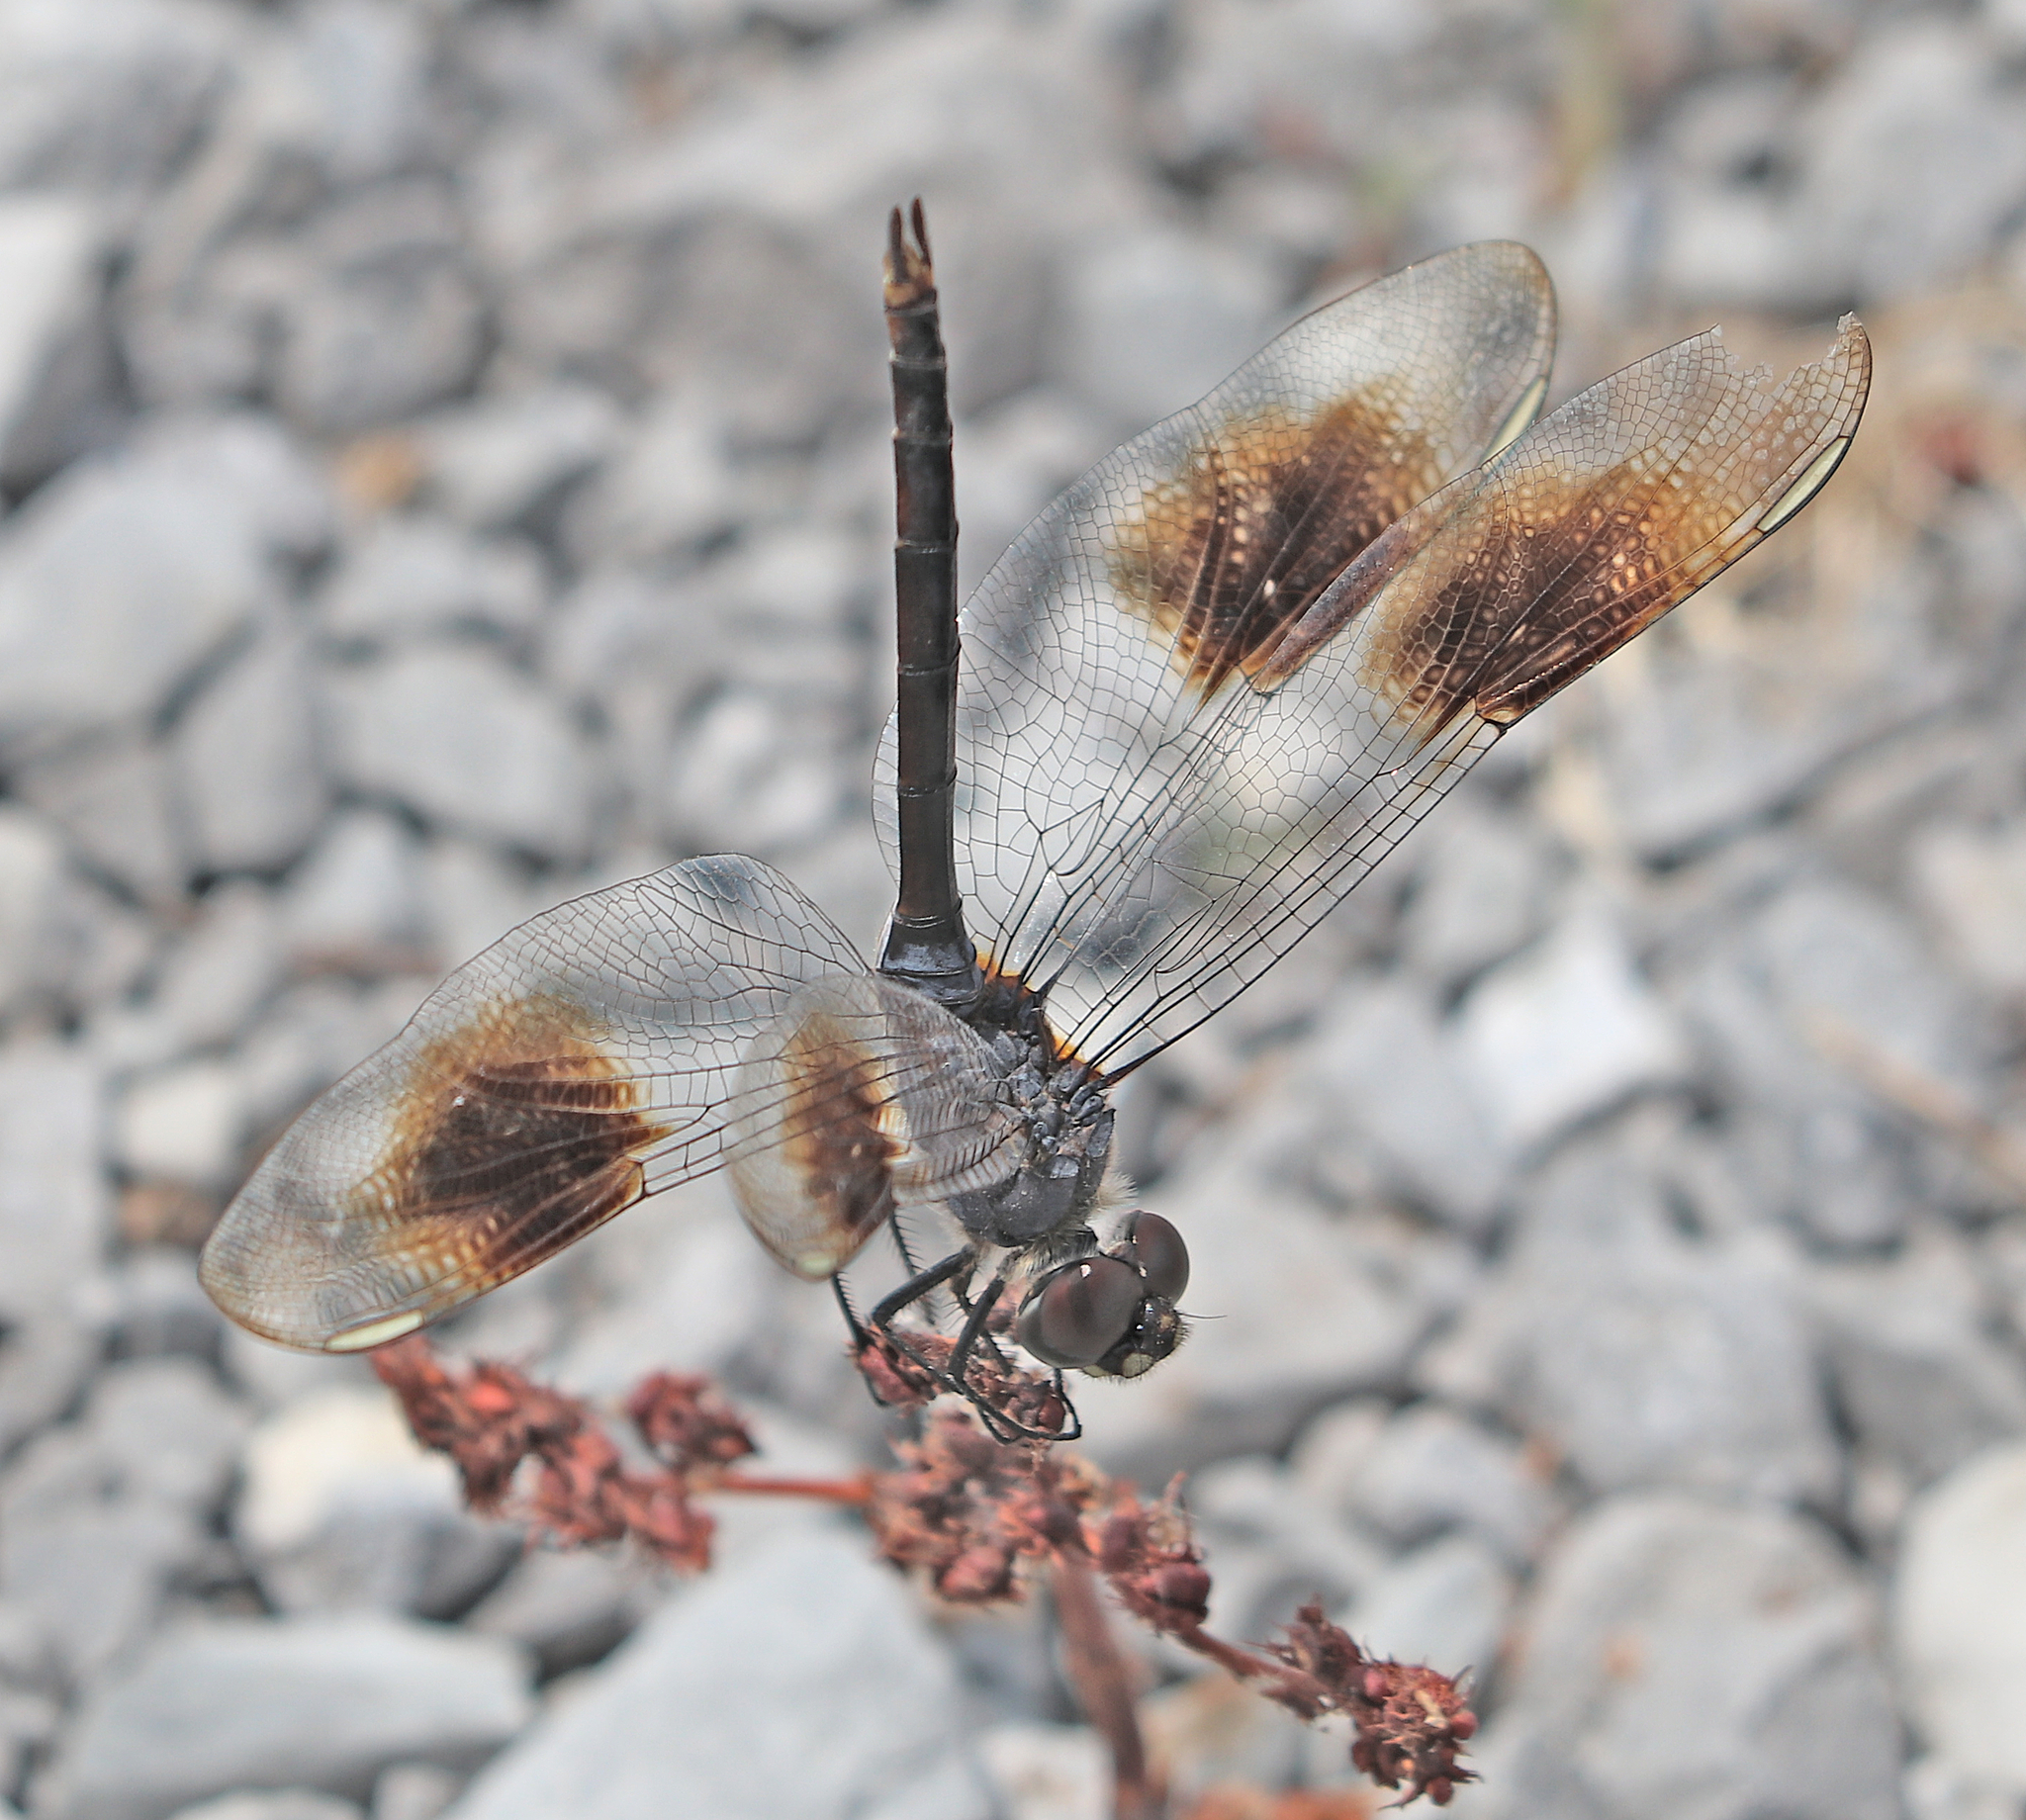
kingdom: Animalia
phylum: Arthropoda
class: Insecta
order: Odonata
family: Libellulidae
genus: Brachymesia
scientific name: Brachymesia gravida
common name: Four-spotted pennant
